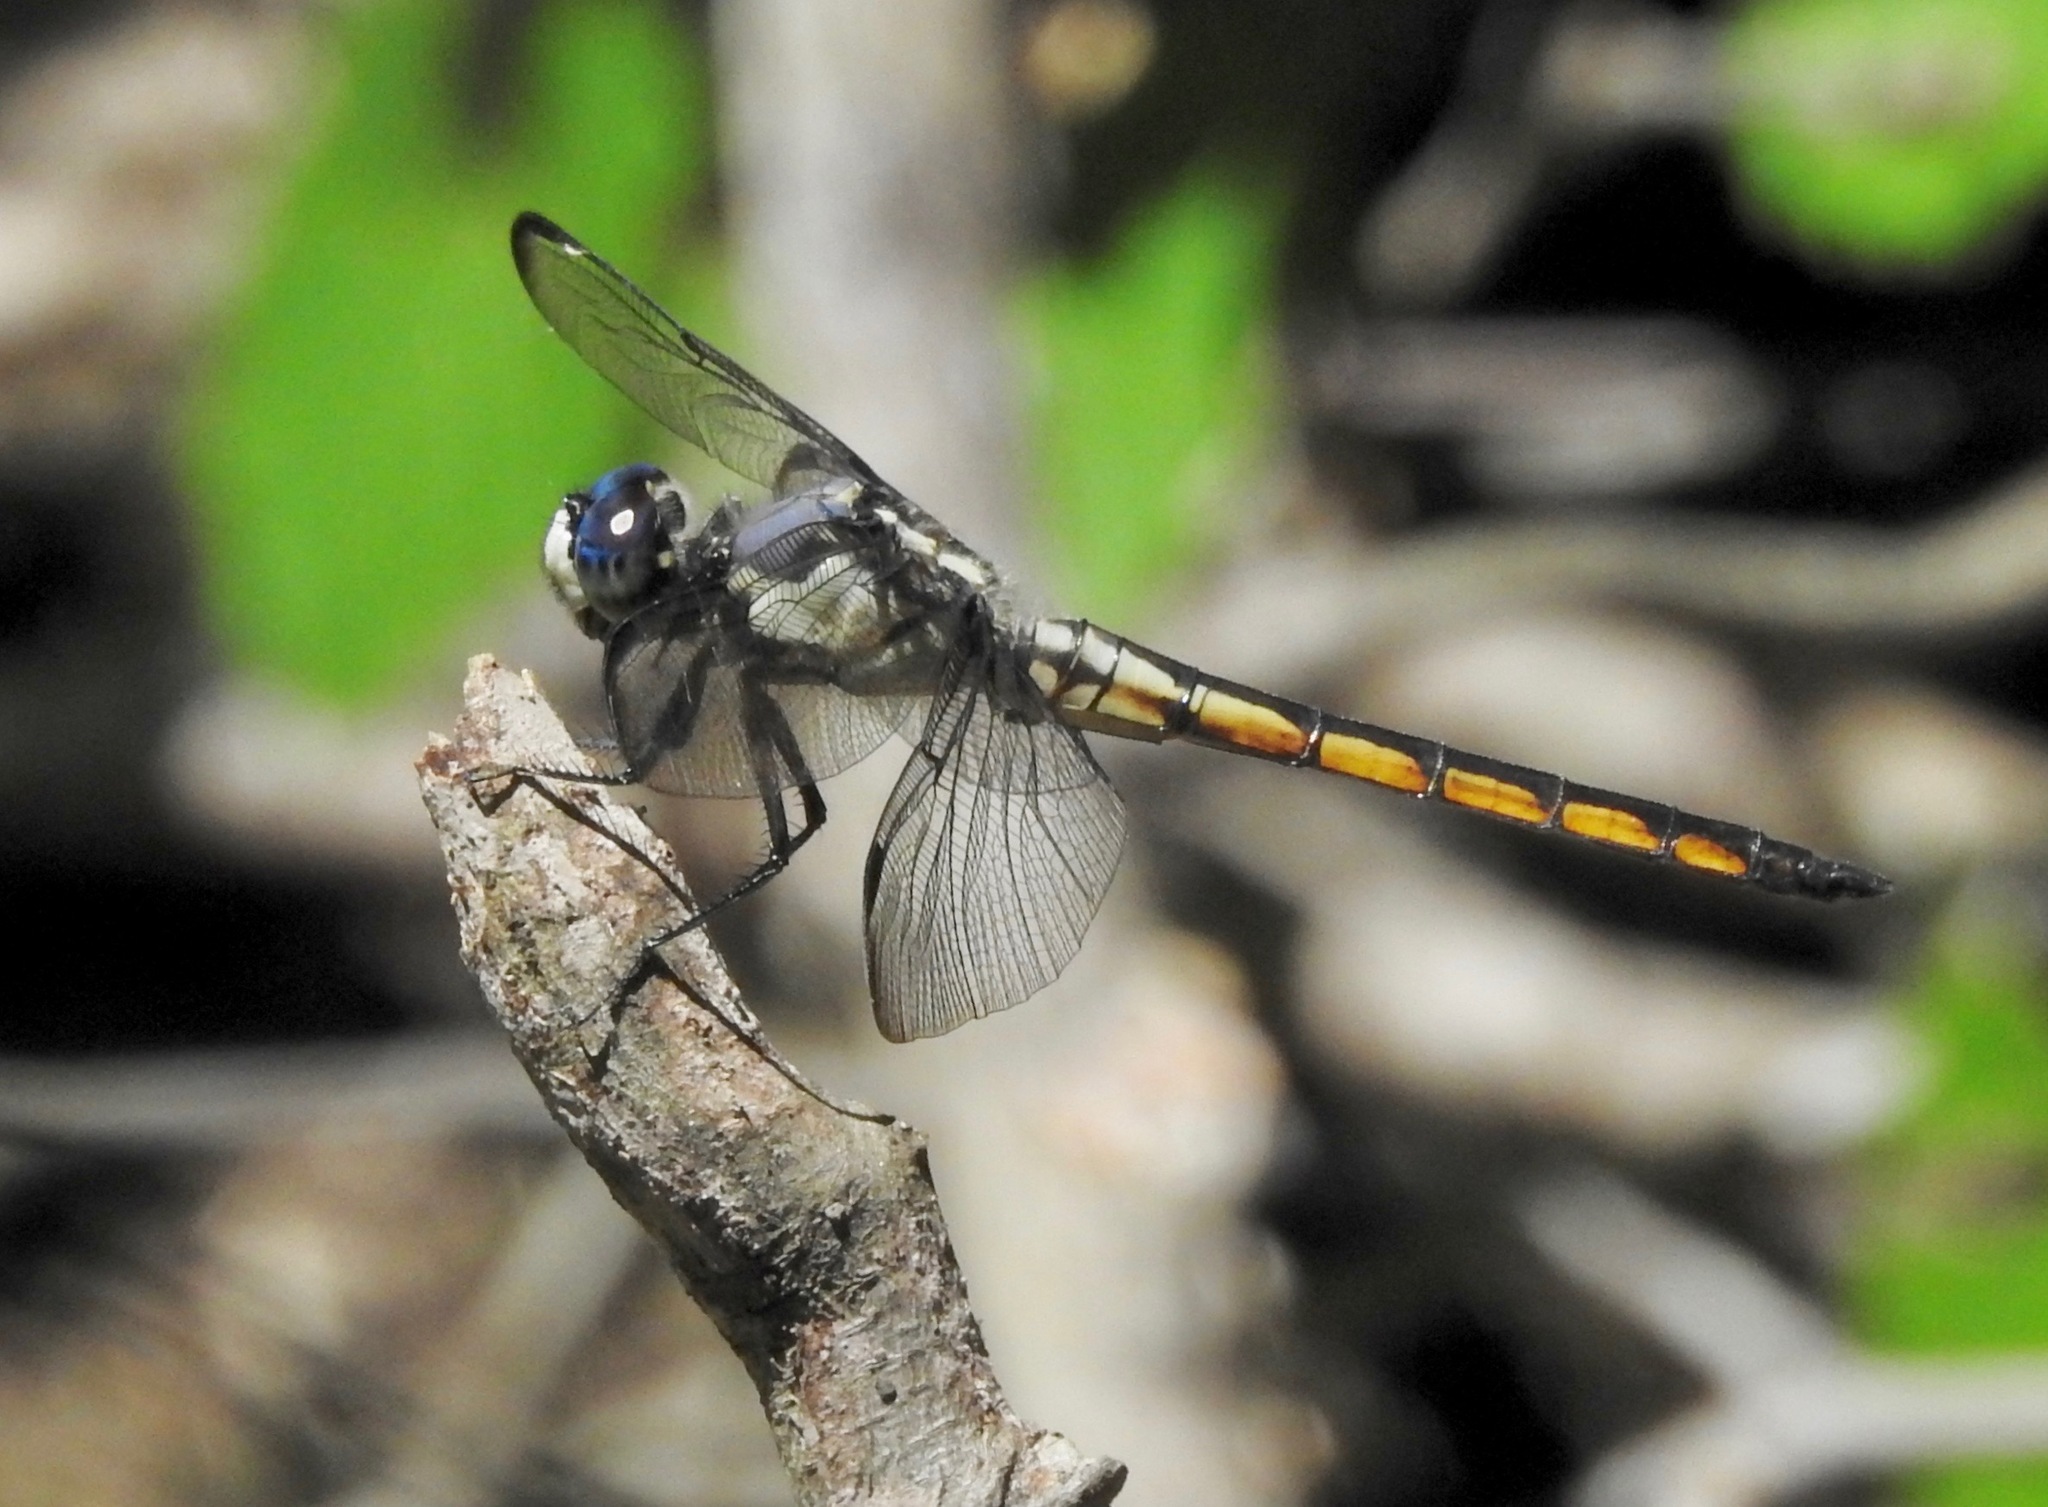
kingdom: Animalia
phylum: Arthropoda
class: Insecta
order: Odonata
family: Libellulidae
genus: Libellula
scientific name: Libellula vibrans
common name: Great blue skimmer
